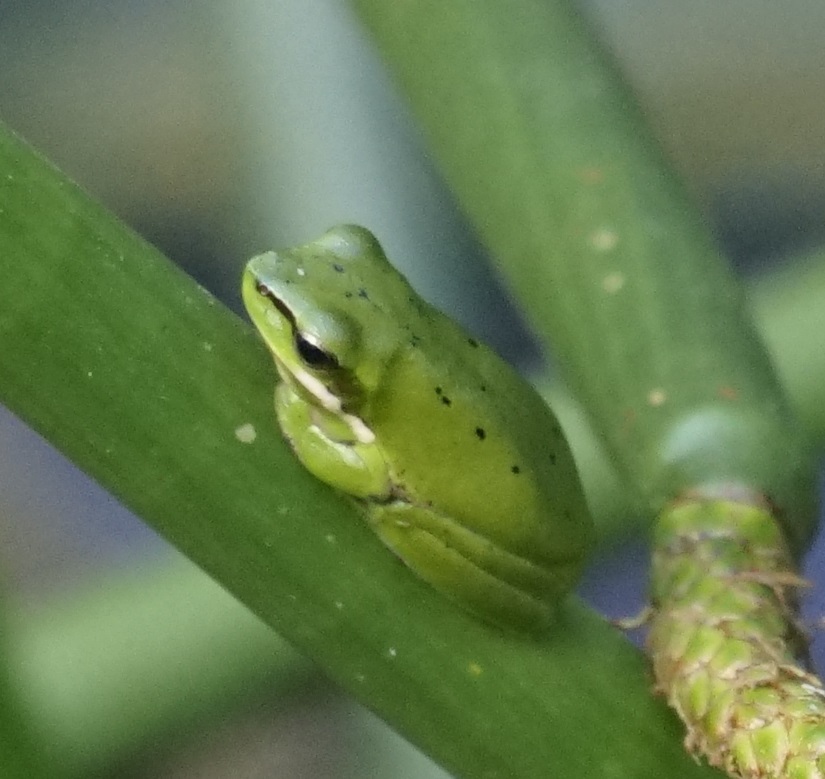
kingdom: Animalia
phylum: Chordata
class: Amphibia
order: Anura
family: Pelodryadidae
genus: Litoria
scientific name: Litoria fallax
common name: Eastern dwarf treefrog
